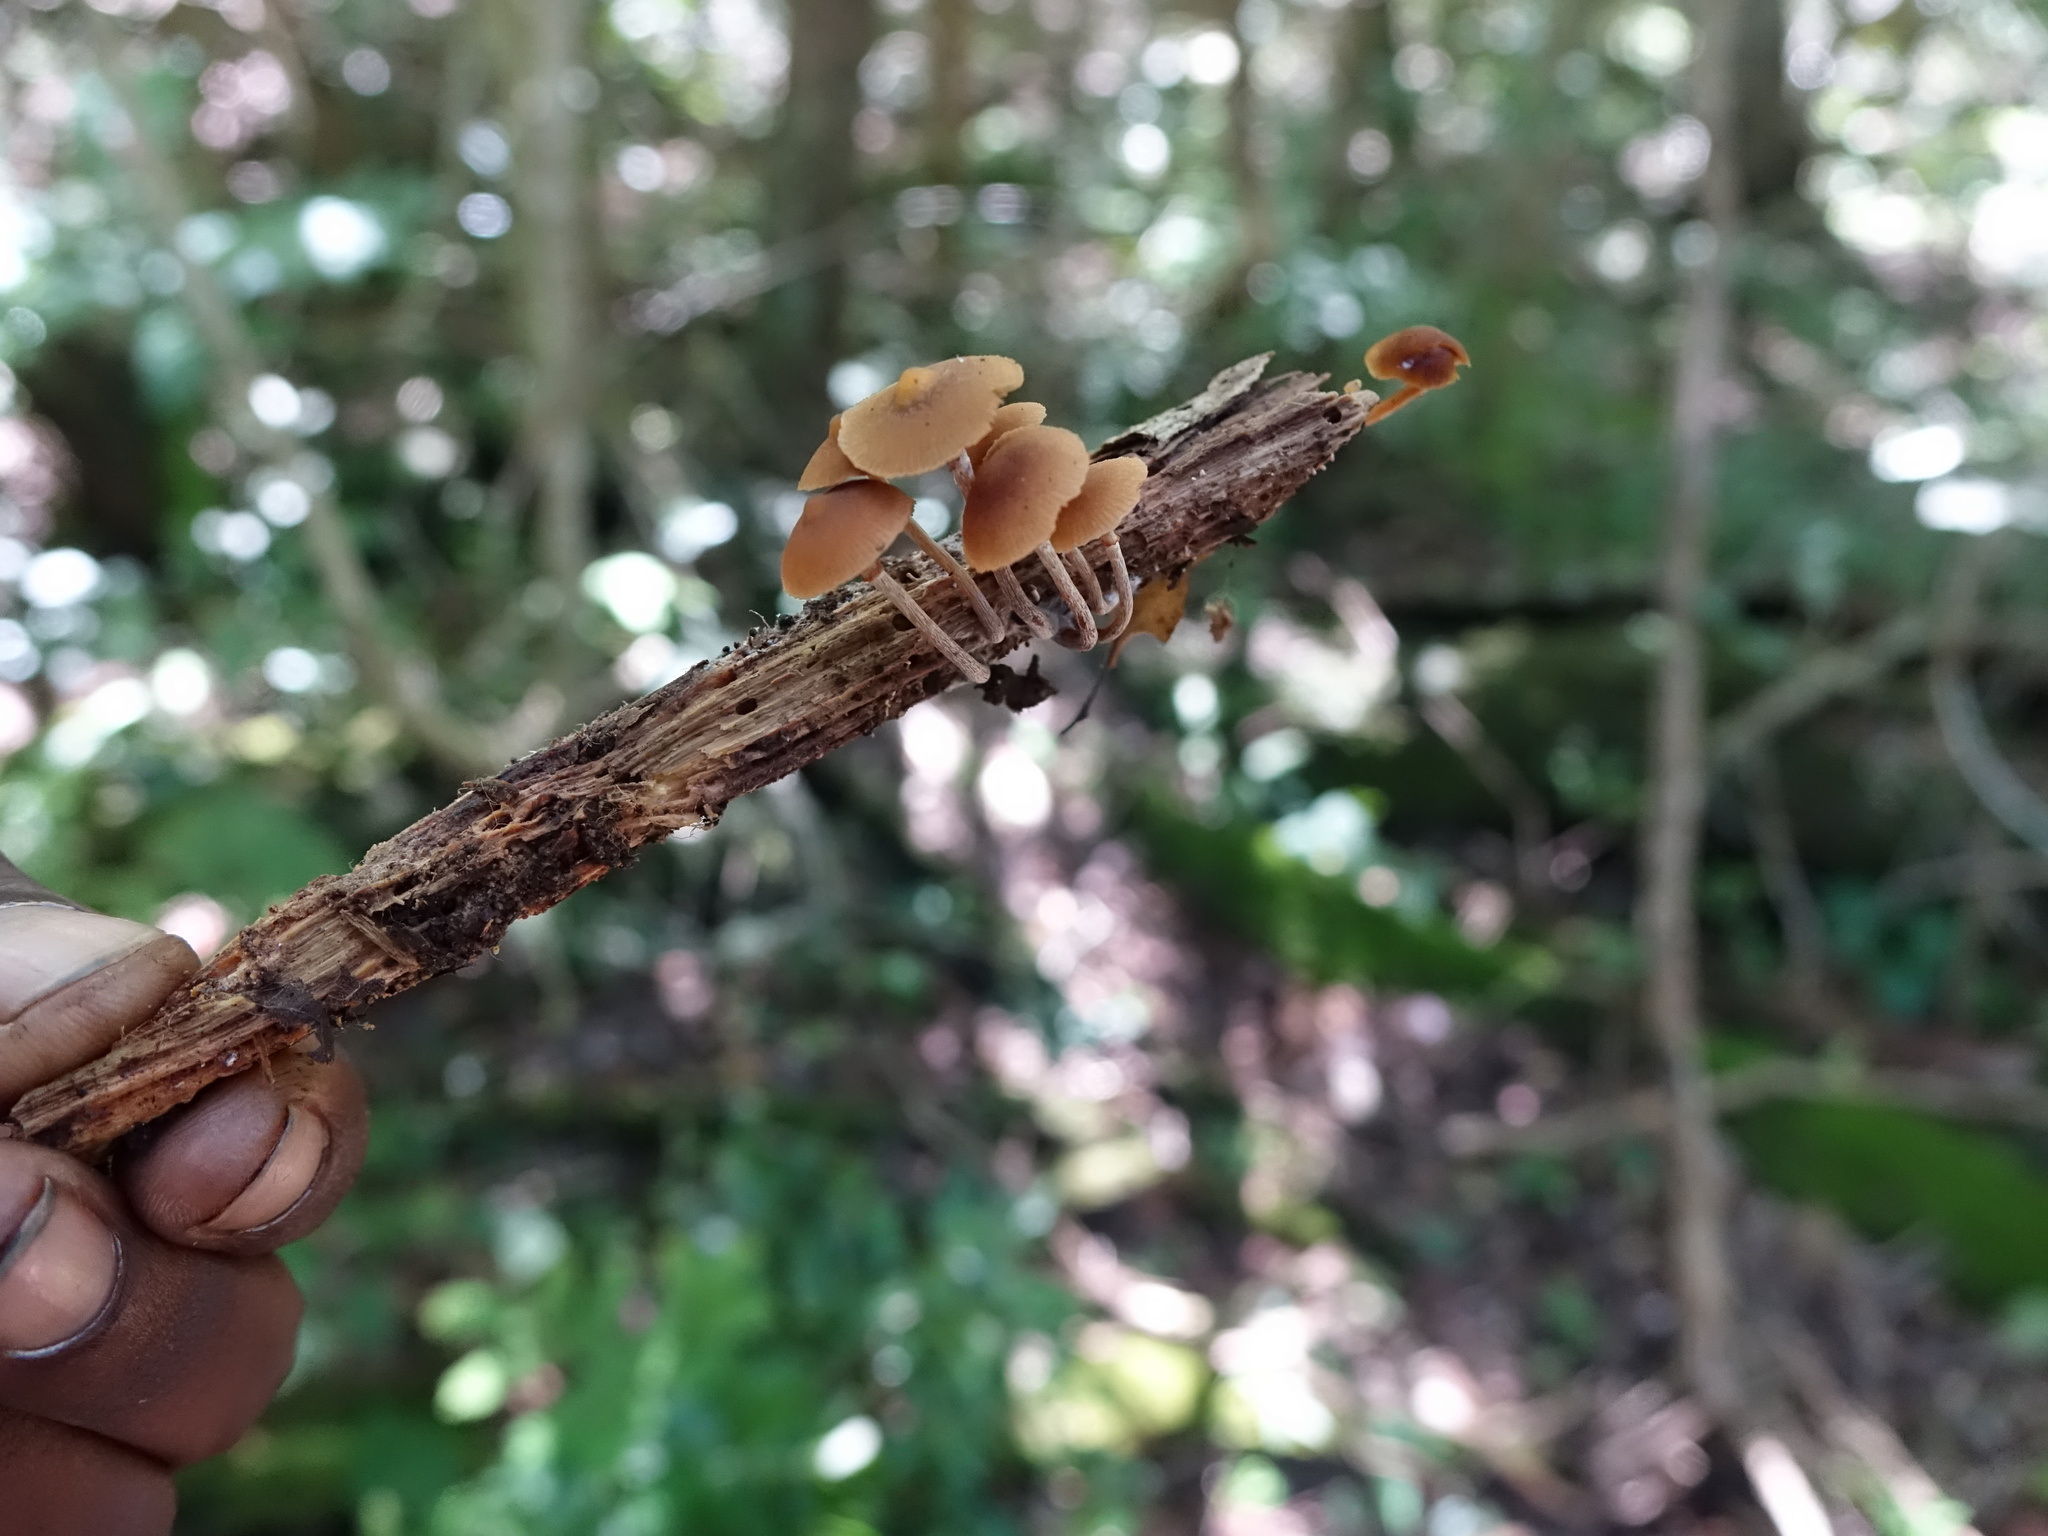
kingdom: Fungi
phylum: Basidiomycota
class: Agaricomycetes
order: Agaricales
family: Hymenogastraceae
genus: Galerina
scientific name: Galerina marginata
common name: Funeral bell
